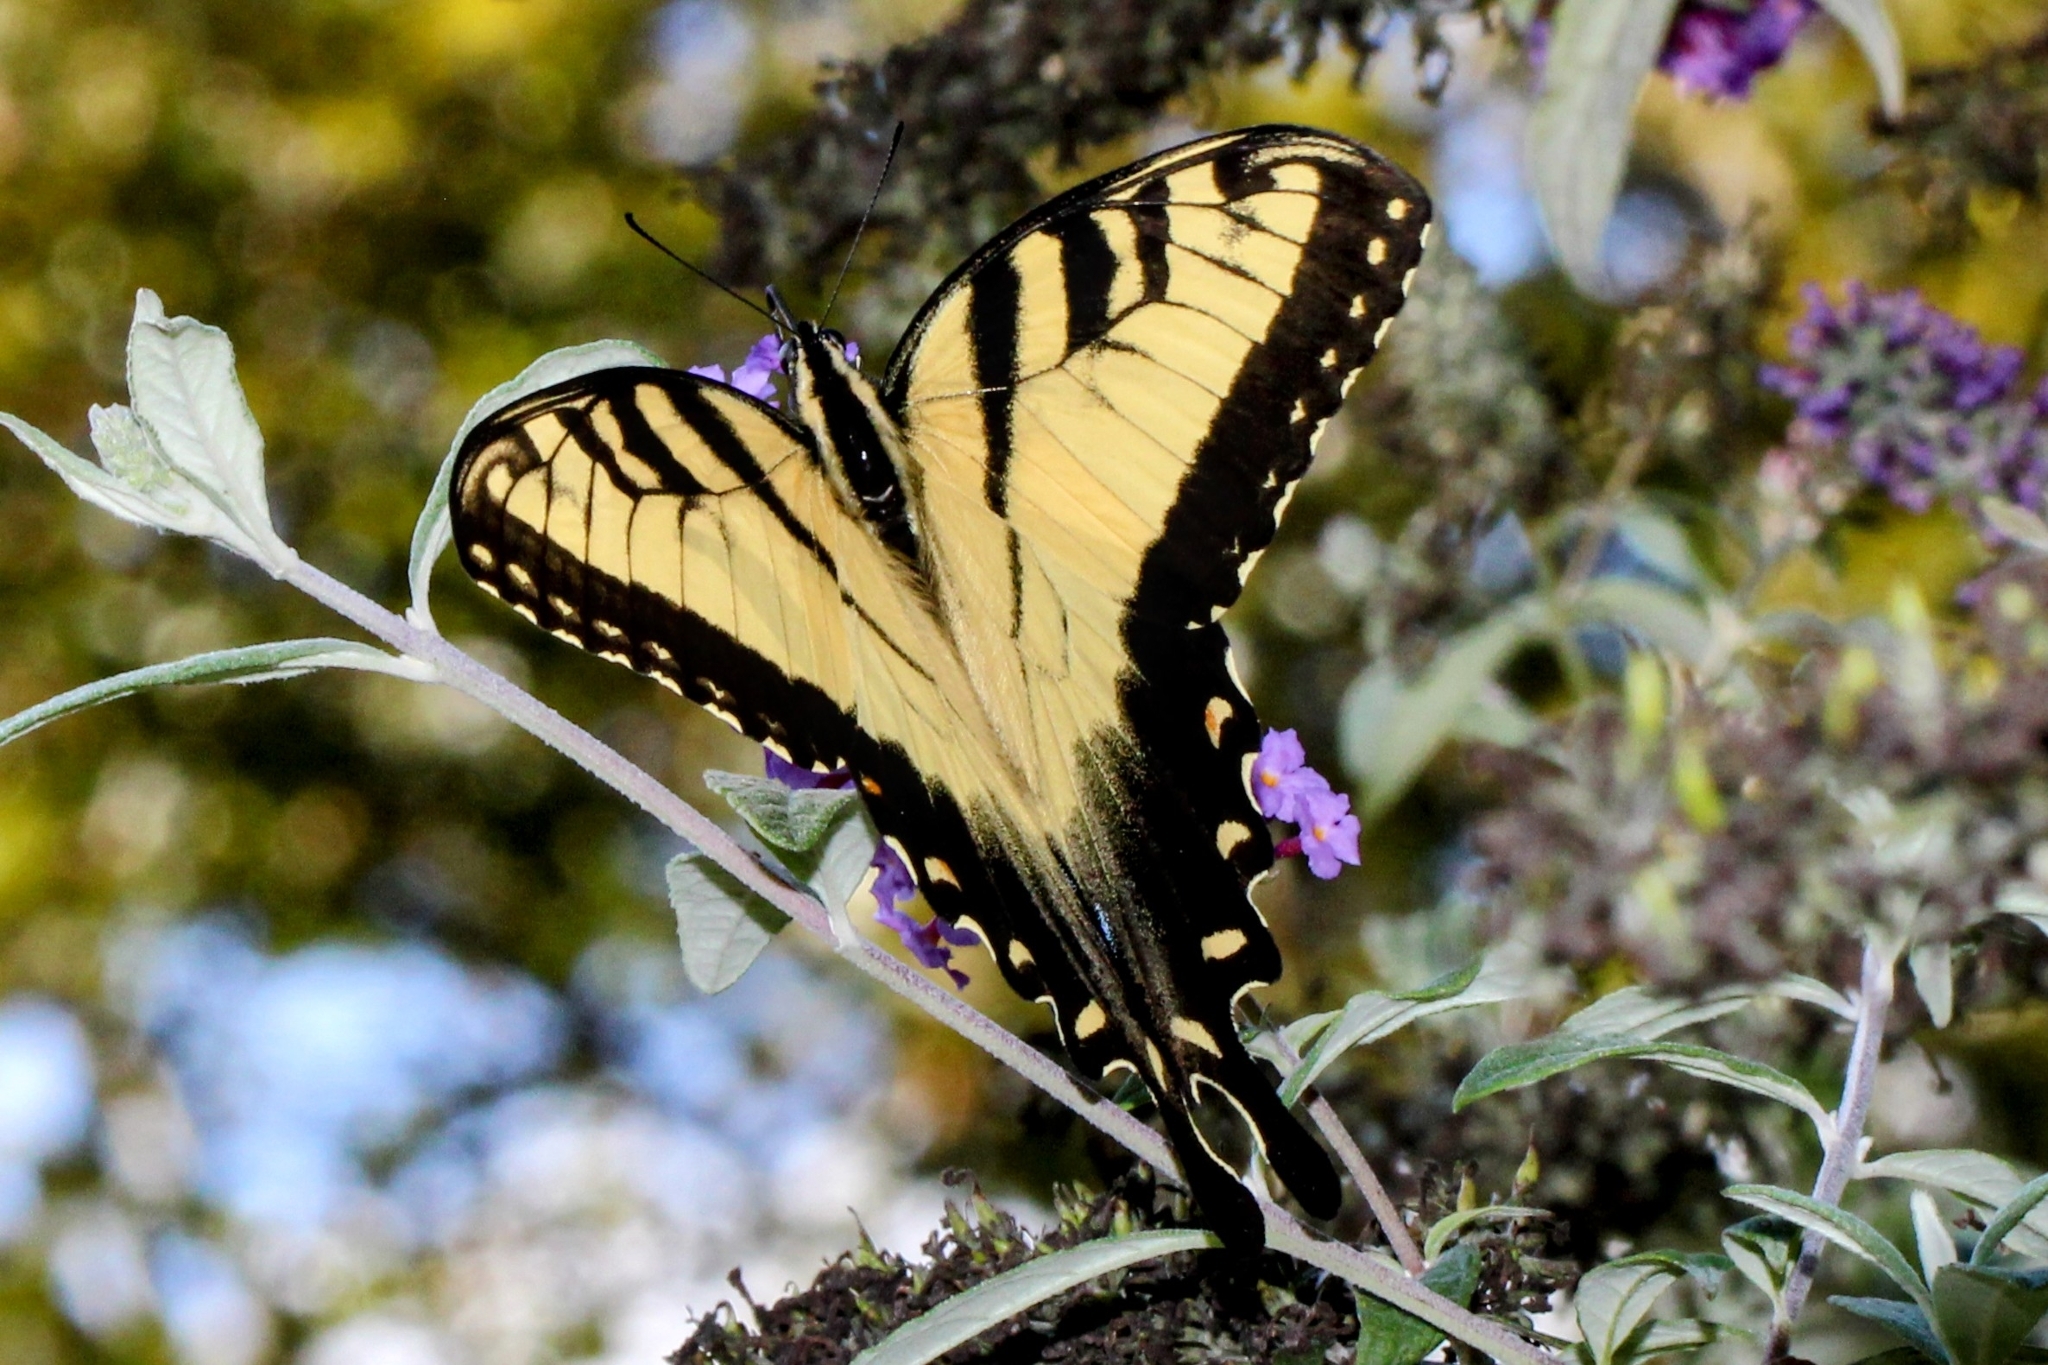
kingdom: Animalia
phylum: Arthropoda
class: Insecta
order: Lepidoptera
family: Papilionidae
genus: Papilio
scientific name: Papilio glaucus
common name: Tiger swallowtail
